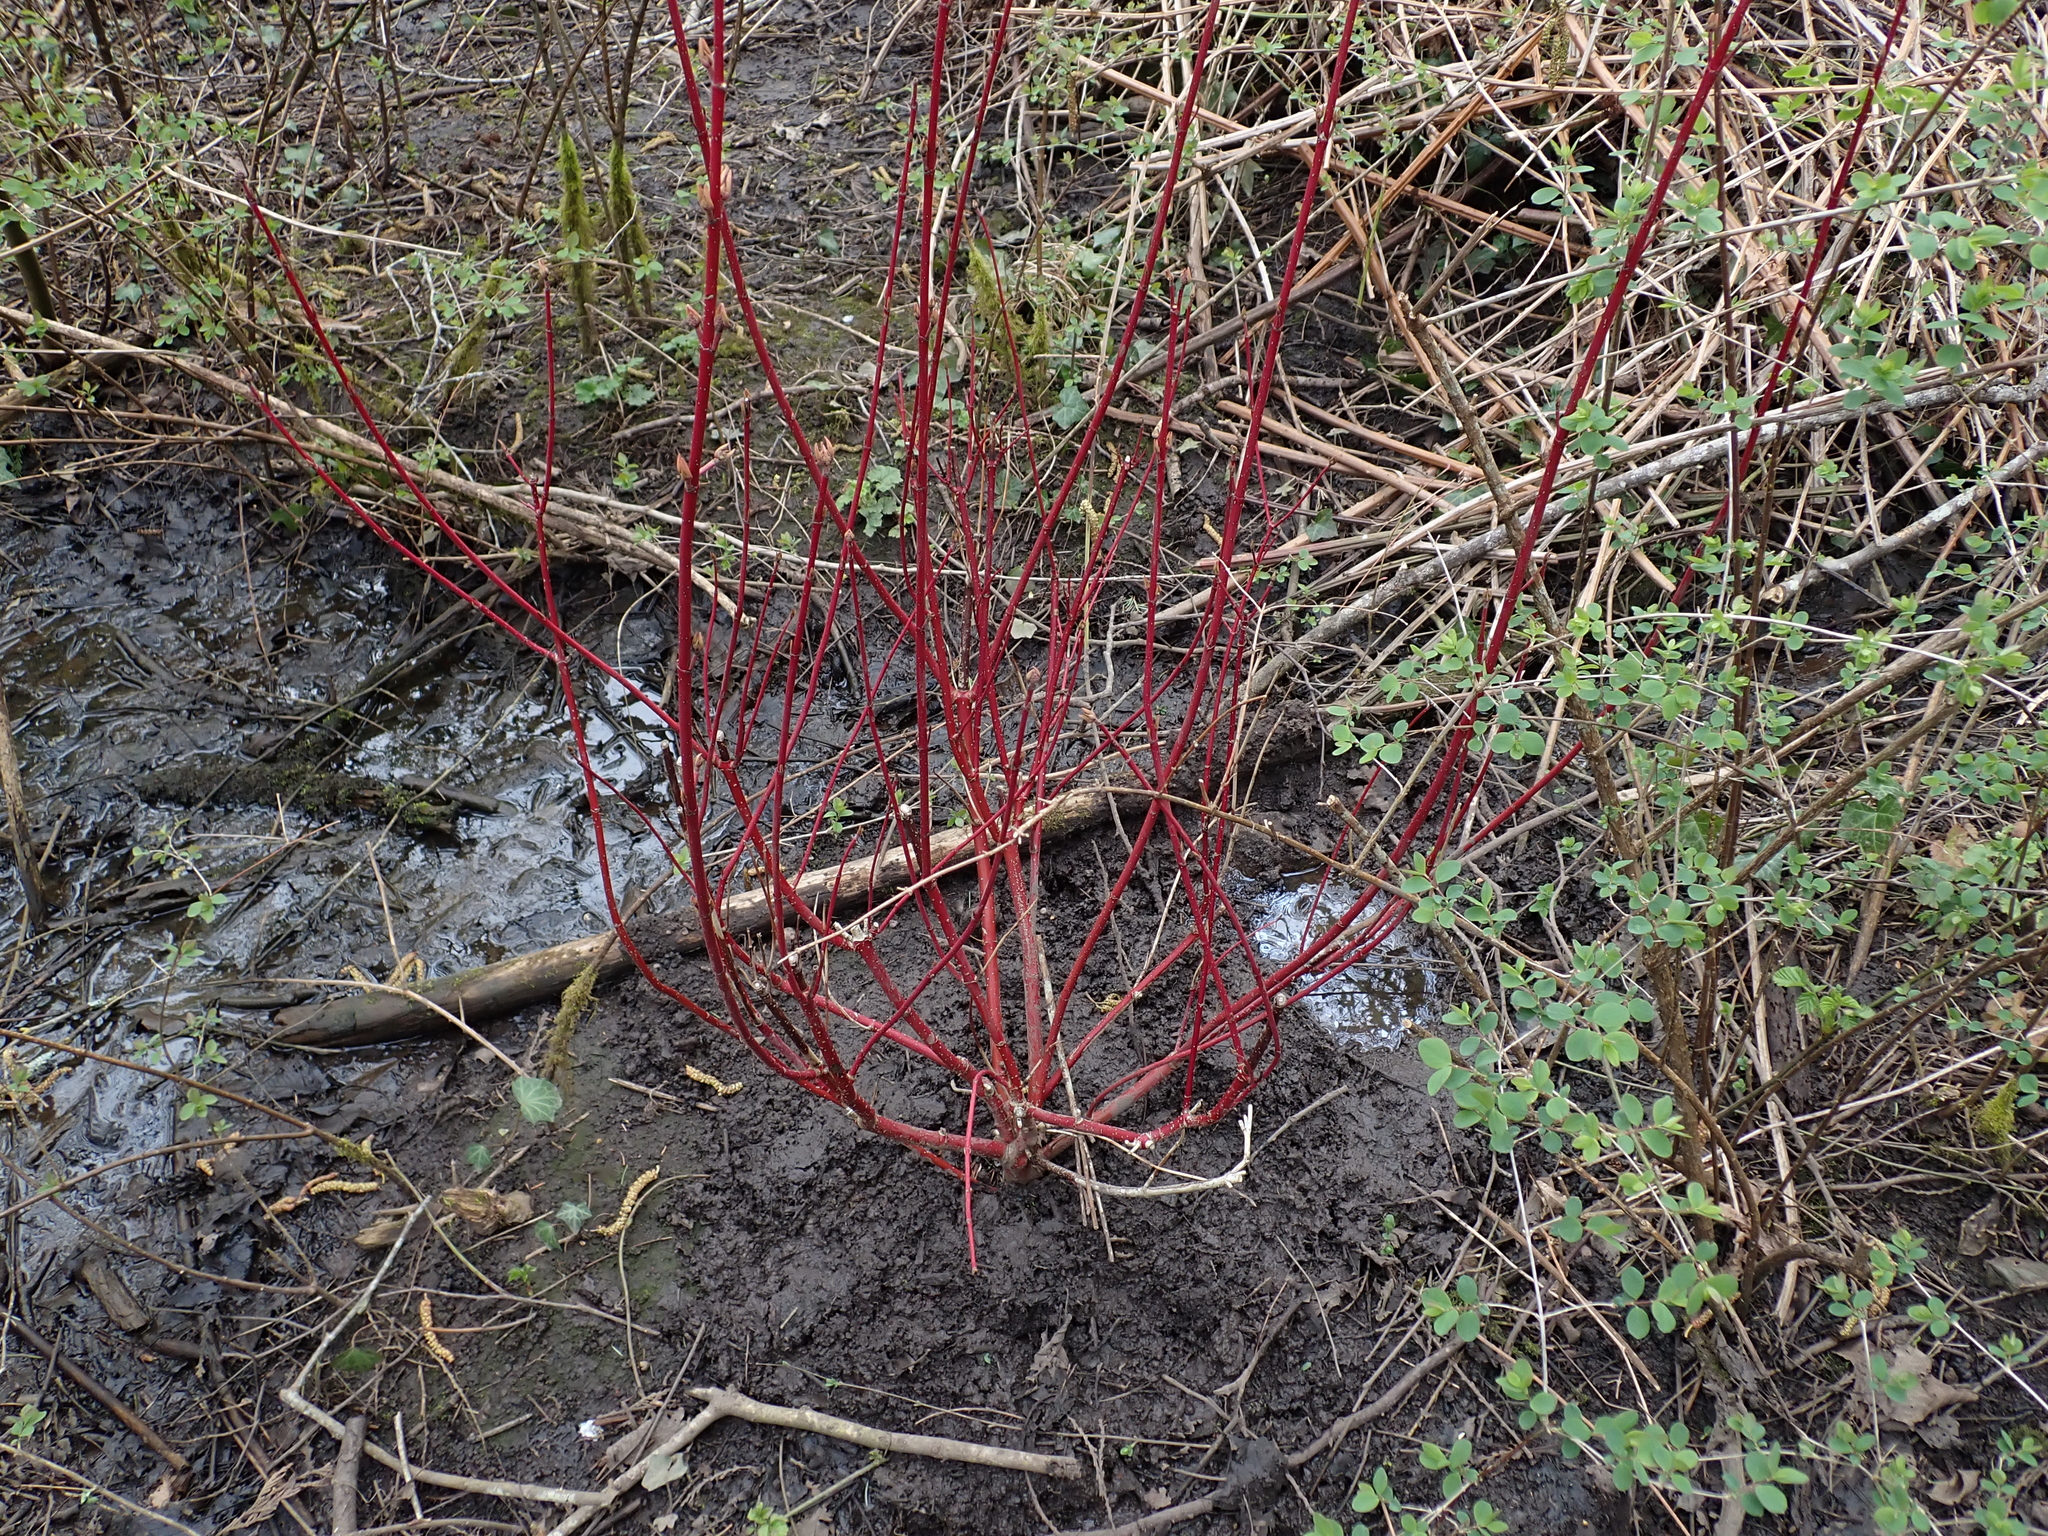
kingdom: Plantae
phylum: Tracheophyta
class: Magnoliopsida
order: Cornales
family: Cornaceae
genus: Cornus
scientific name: Cornus sericea
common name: Red-osier dogwood
